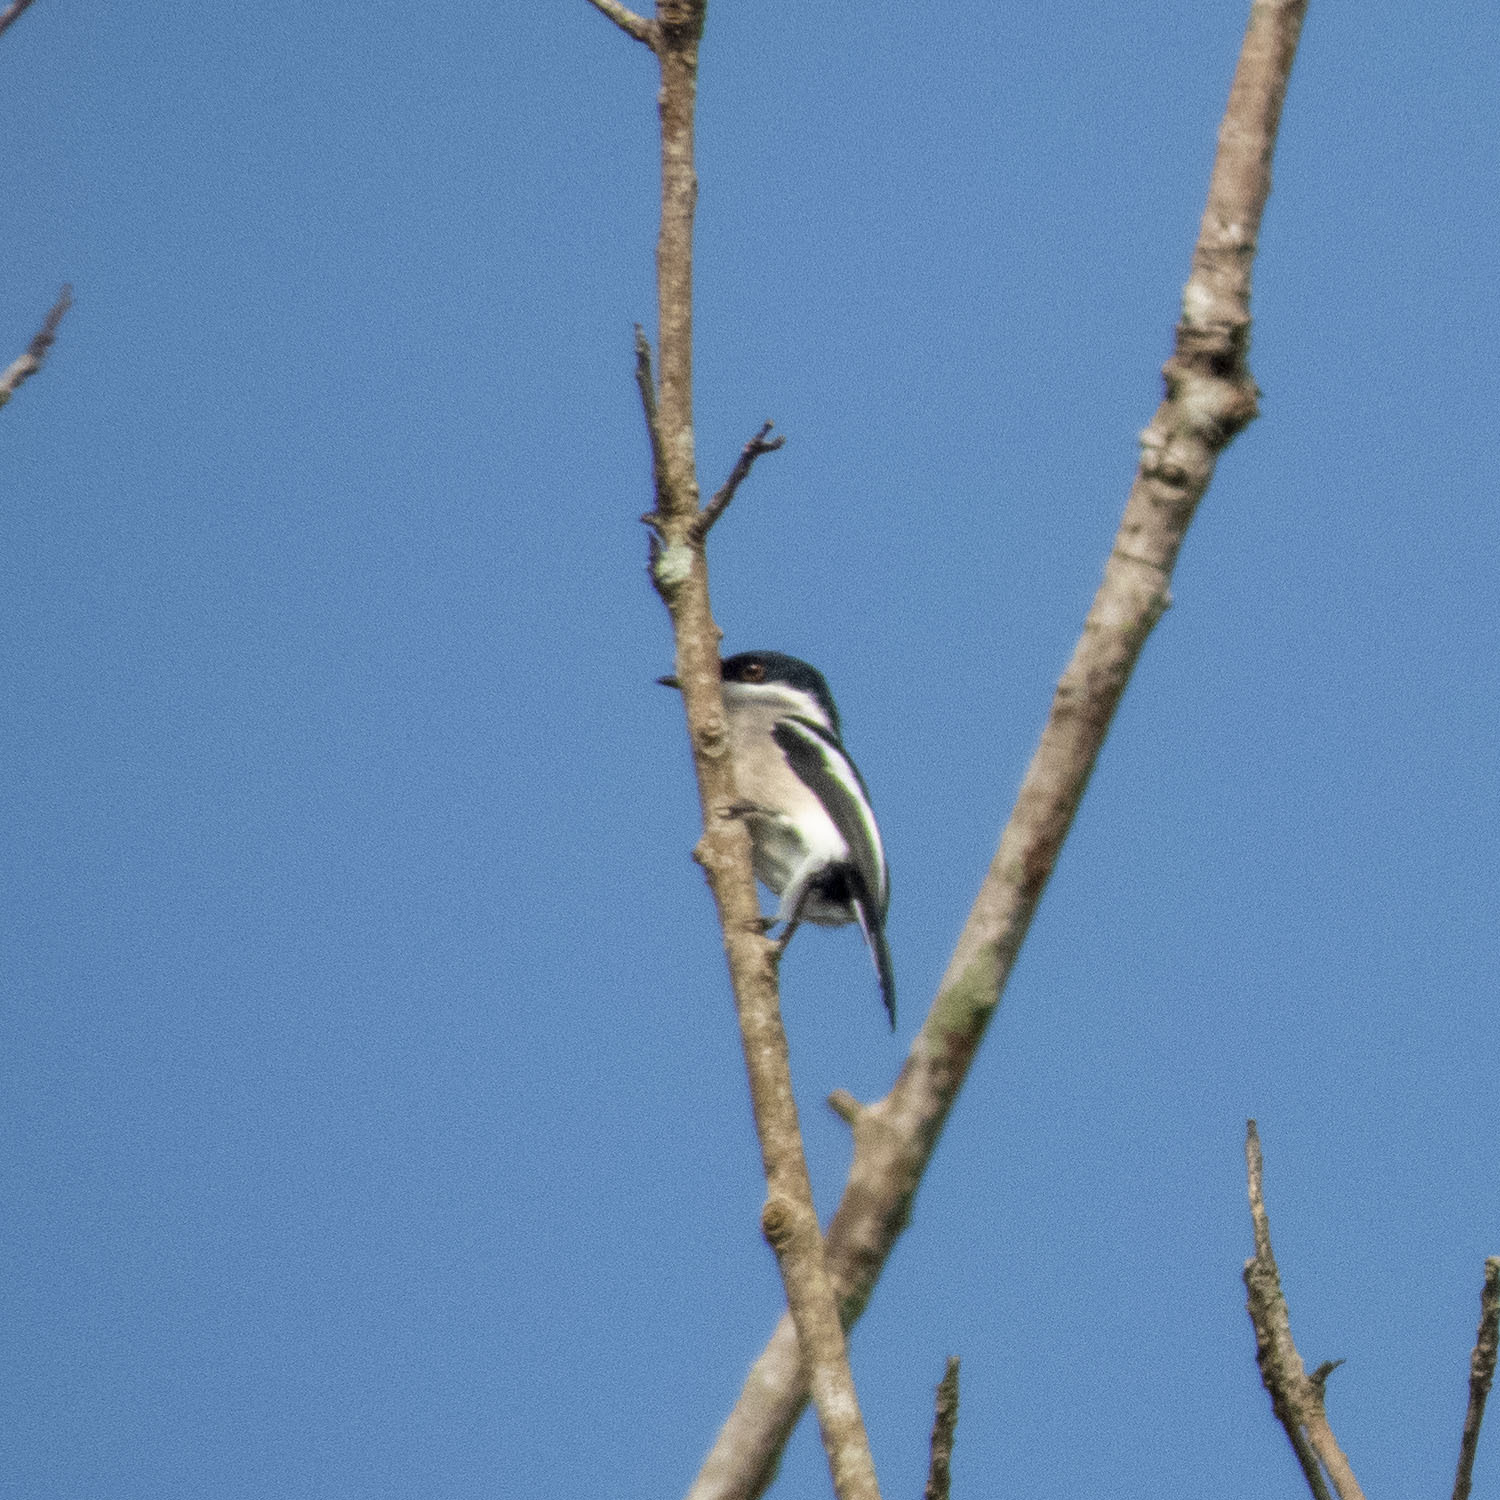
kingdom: Animalia
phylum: Chordata
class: Aves
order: Passeriformes
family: Tephrodornithidae
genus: Hemipus
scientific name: Hemipus picatus
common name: Bar-winged flycatcher-shrike
